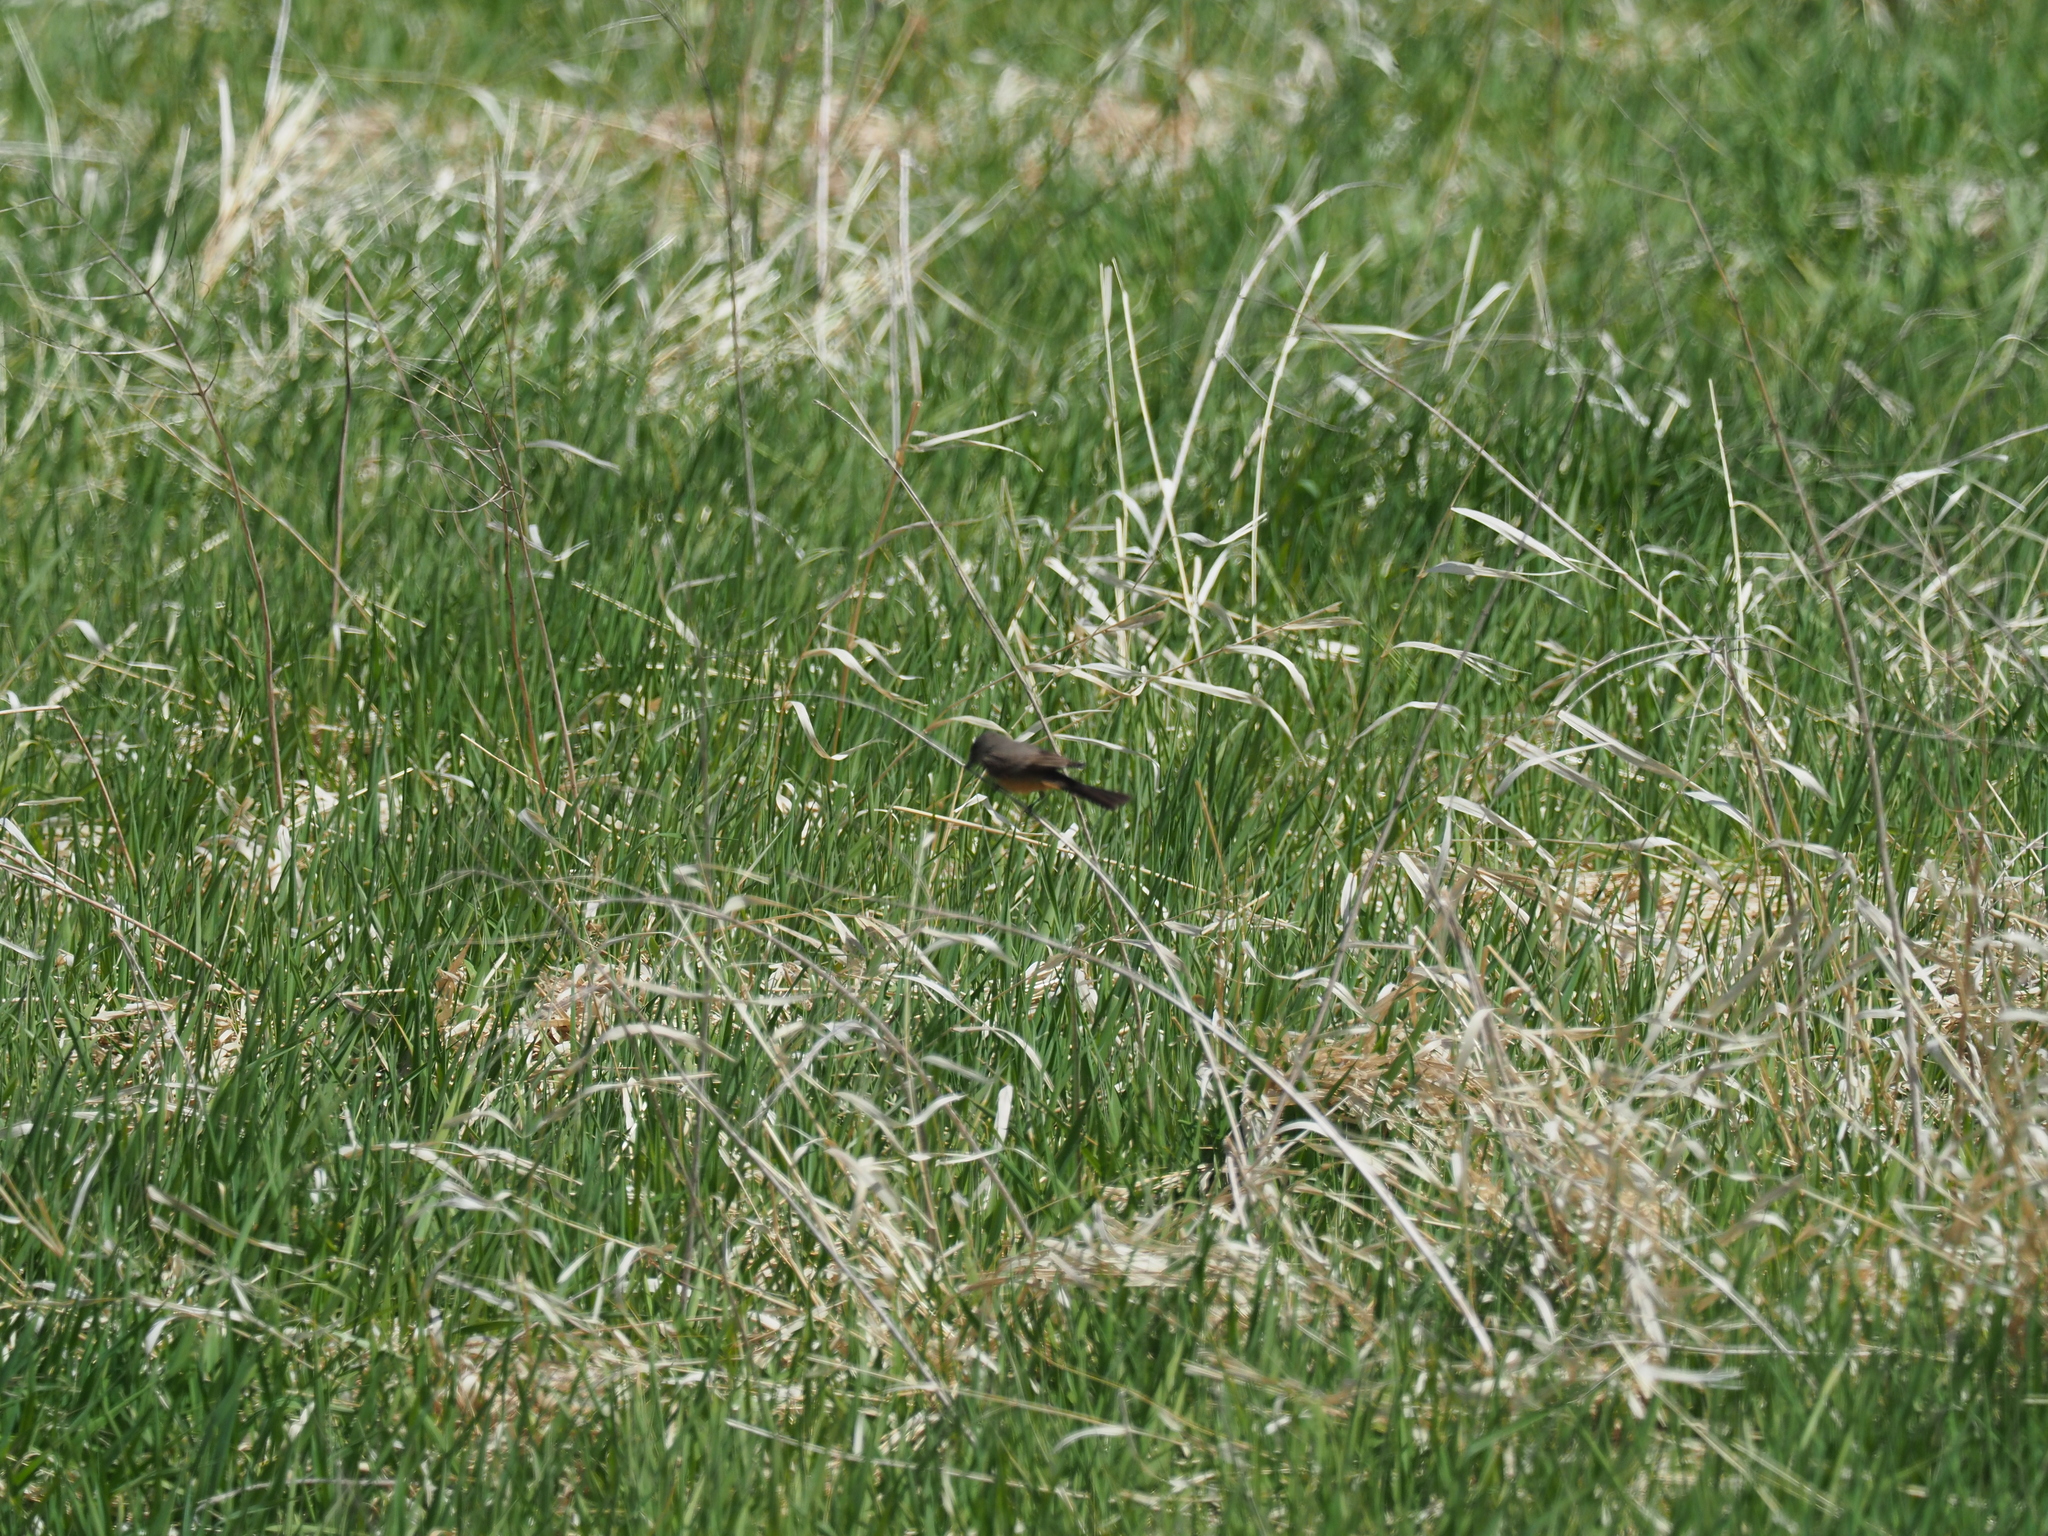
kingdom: Animalia
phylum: Chordata
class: Aves
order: Passeriformes
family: Tyrannidae
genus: Sayornis
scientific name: Sayornis saya
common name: Say's phoebe
